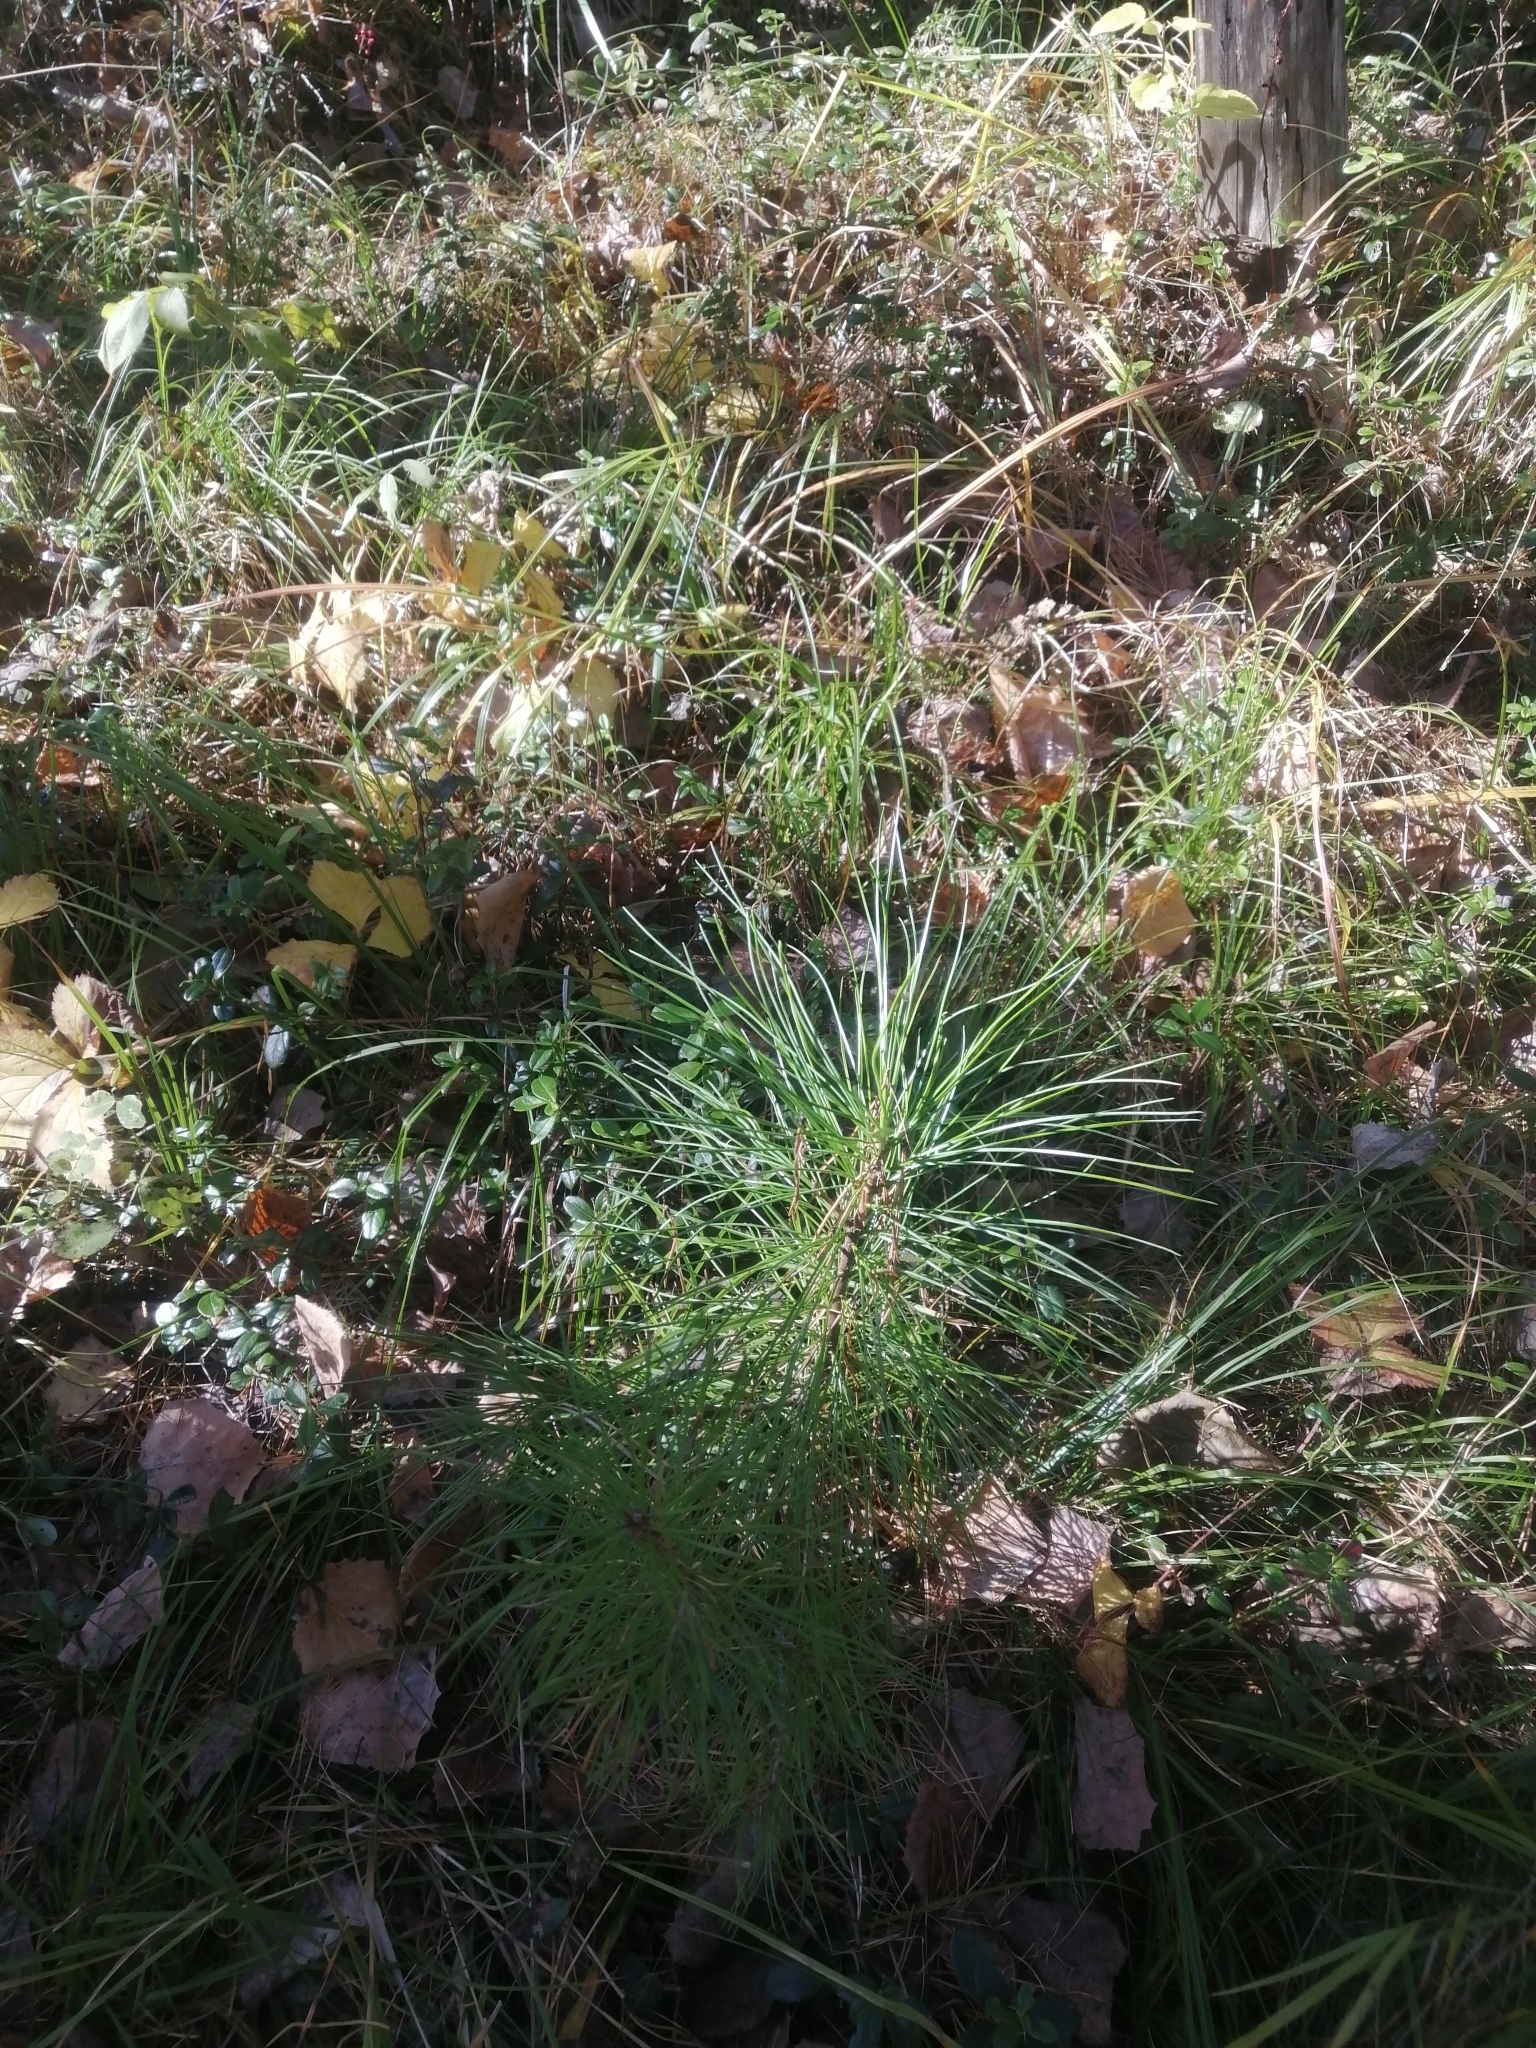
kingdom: Plantae
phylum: Tracheophyta
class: Pinopsida
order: Pinales
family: Pinaceae
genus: Pinus
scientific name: Pinus sibirica
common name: Siberian pine
